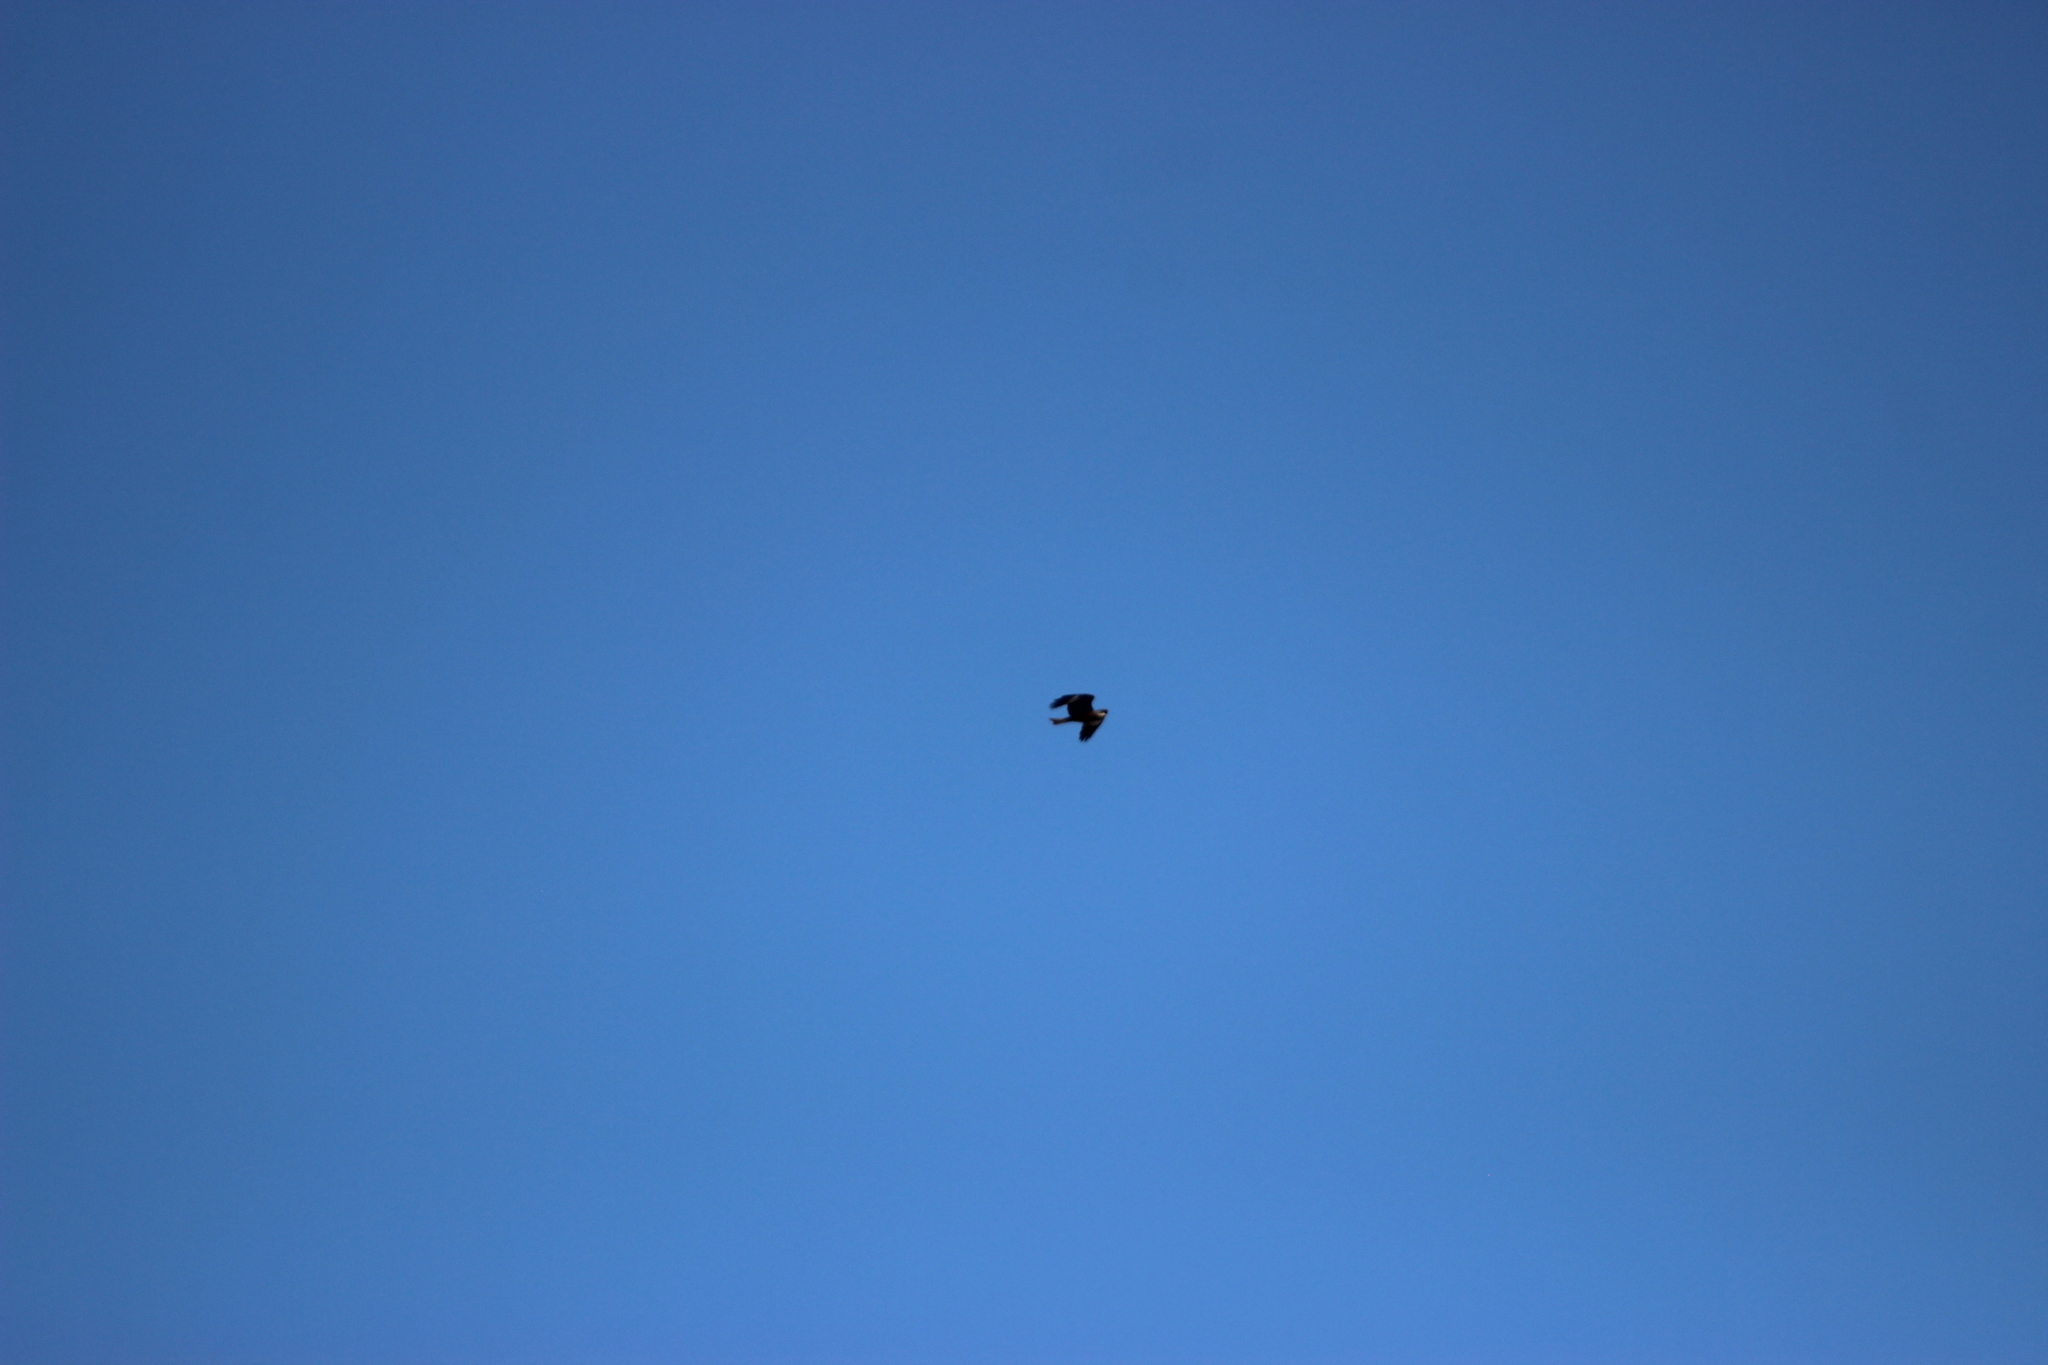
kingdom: Animalia
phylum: Chordata
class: Aves
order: Accipitriformes
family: Accipitridae
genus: Milvus
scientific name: Milvus migrans
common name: Black kite
